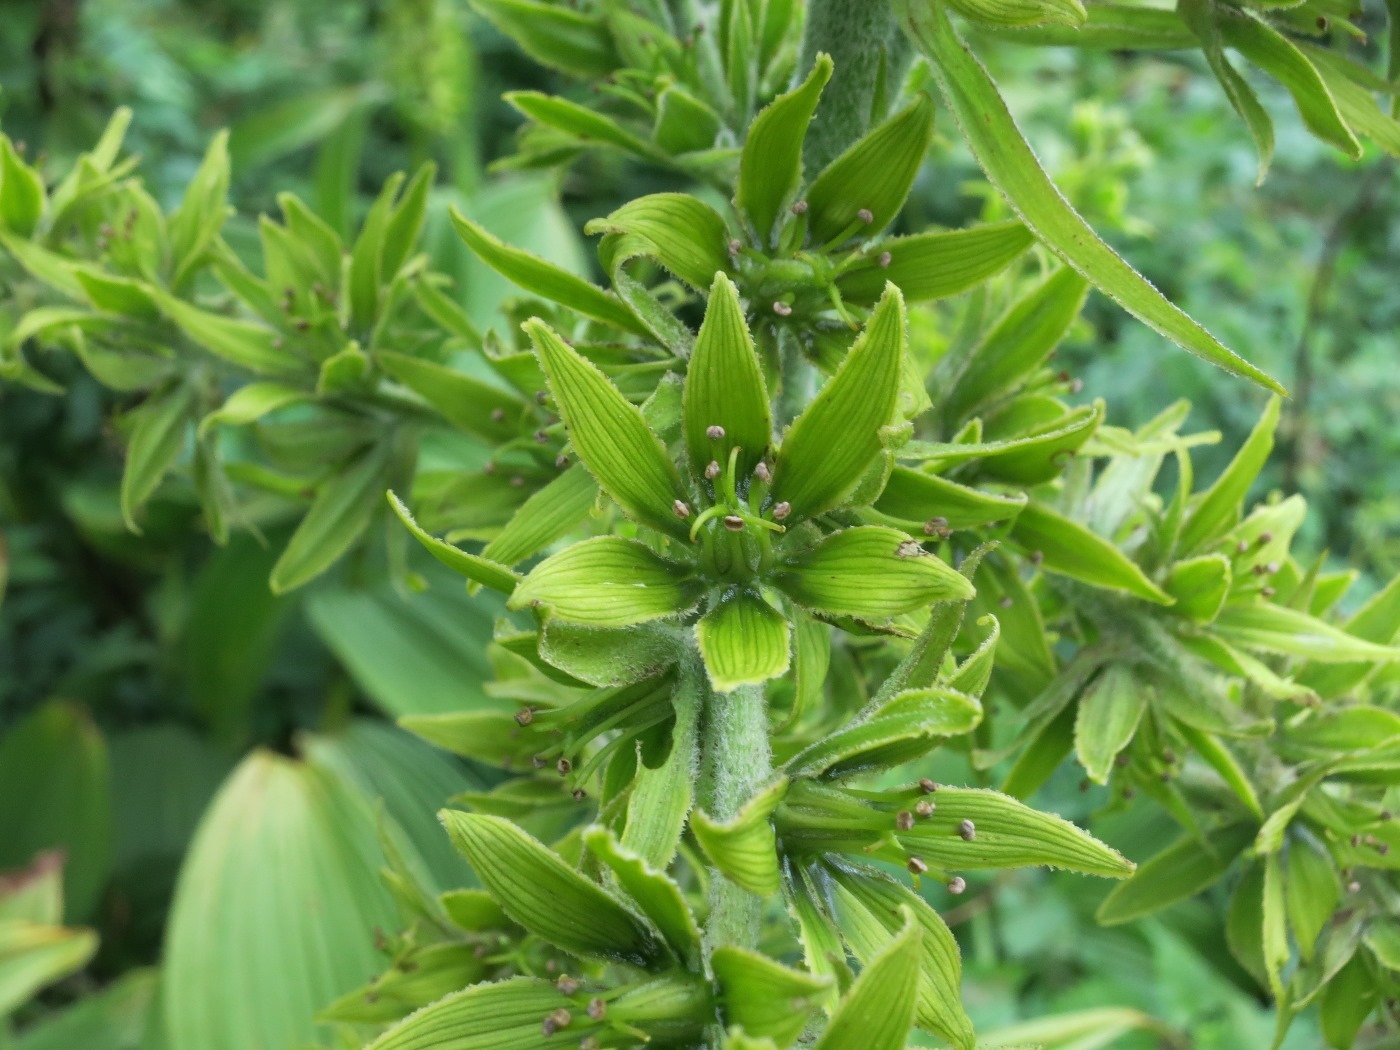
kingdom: Plantae
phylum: Tracheophyta
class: Liliopsida
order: Liliales
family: Melanthiaceae
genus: Veratrum
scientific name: Veratrum viride
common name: American false hellebore
